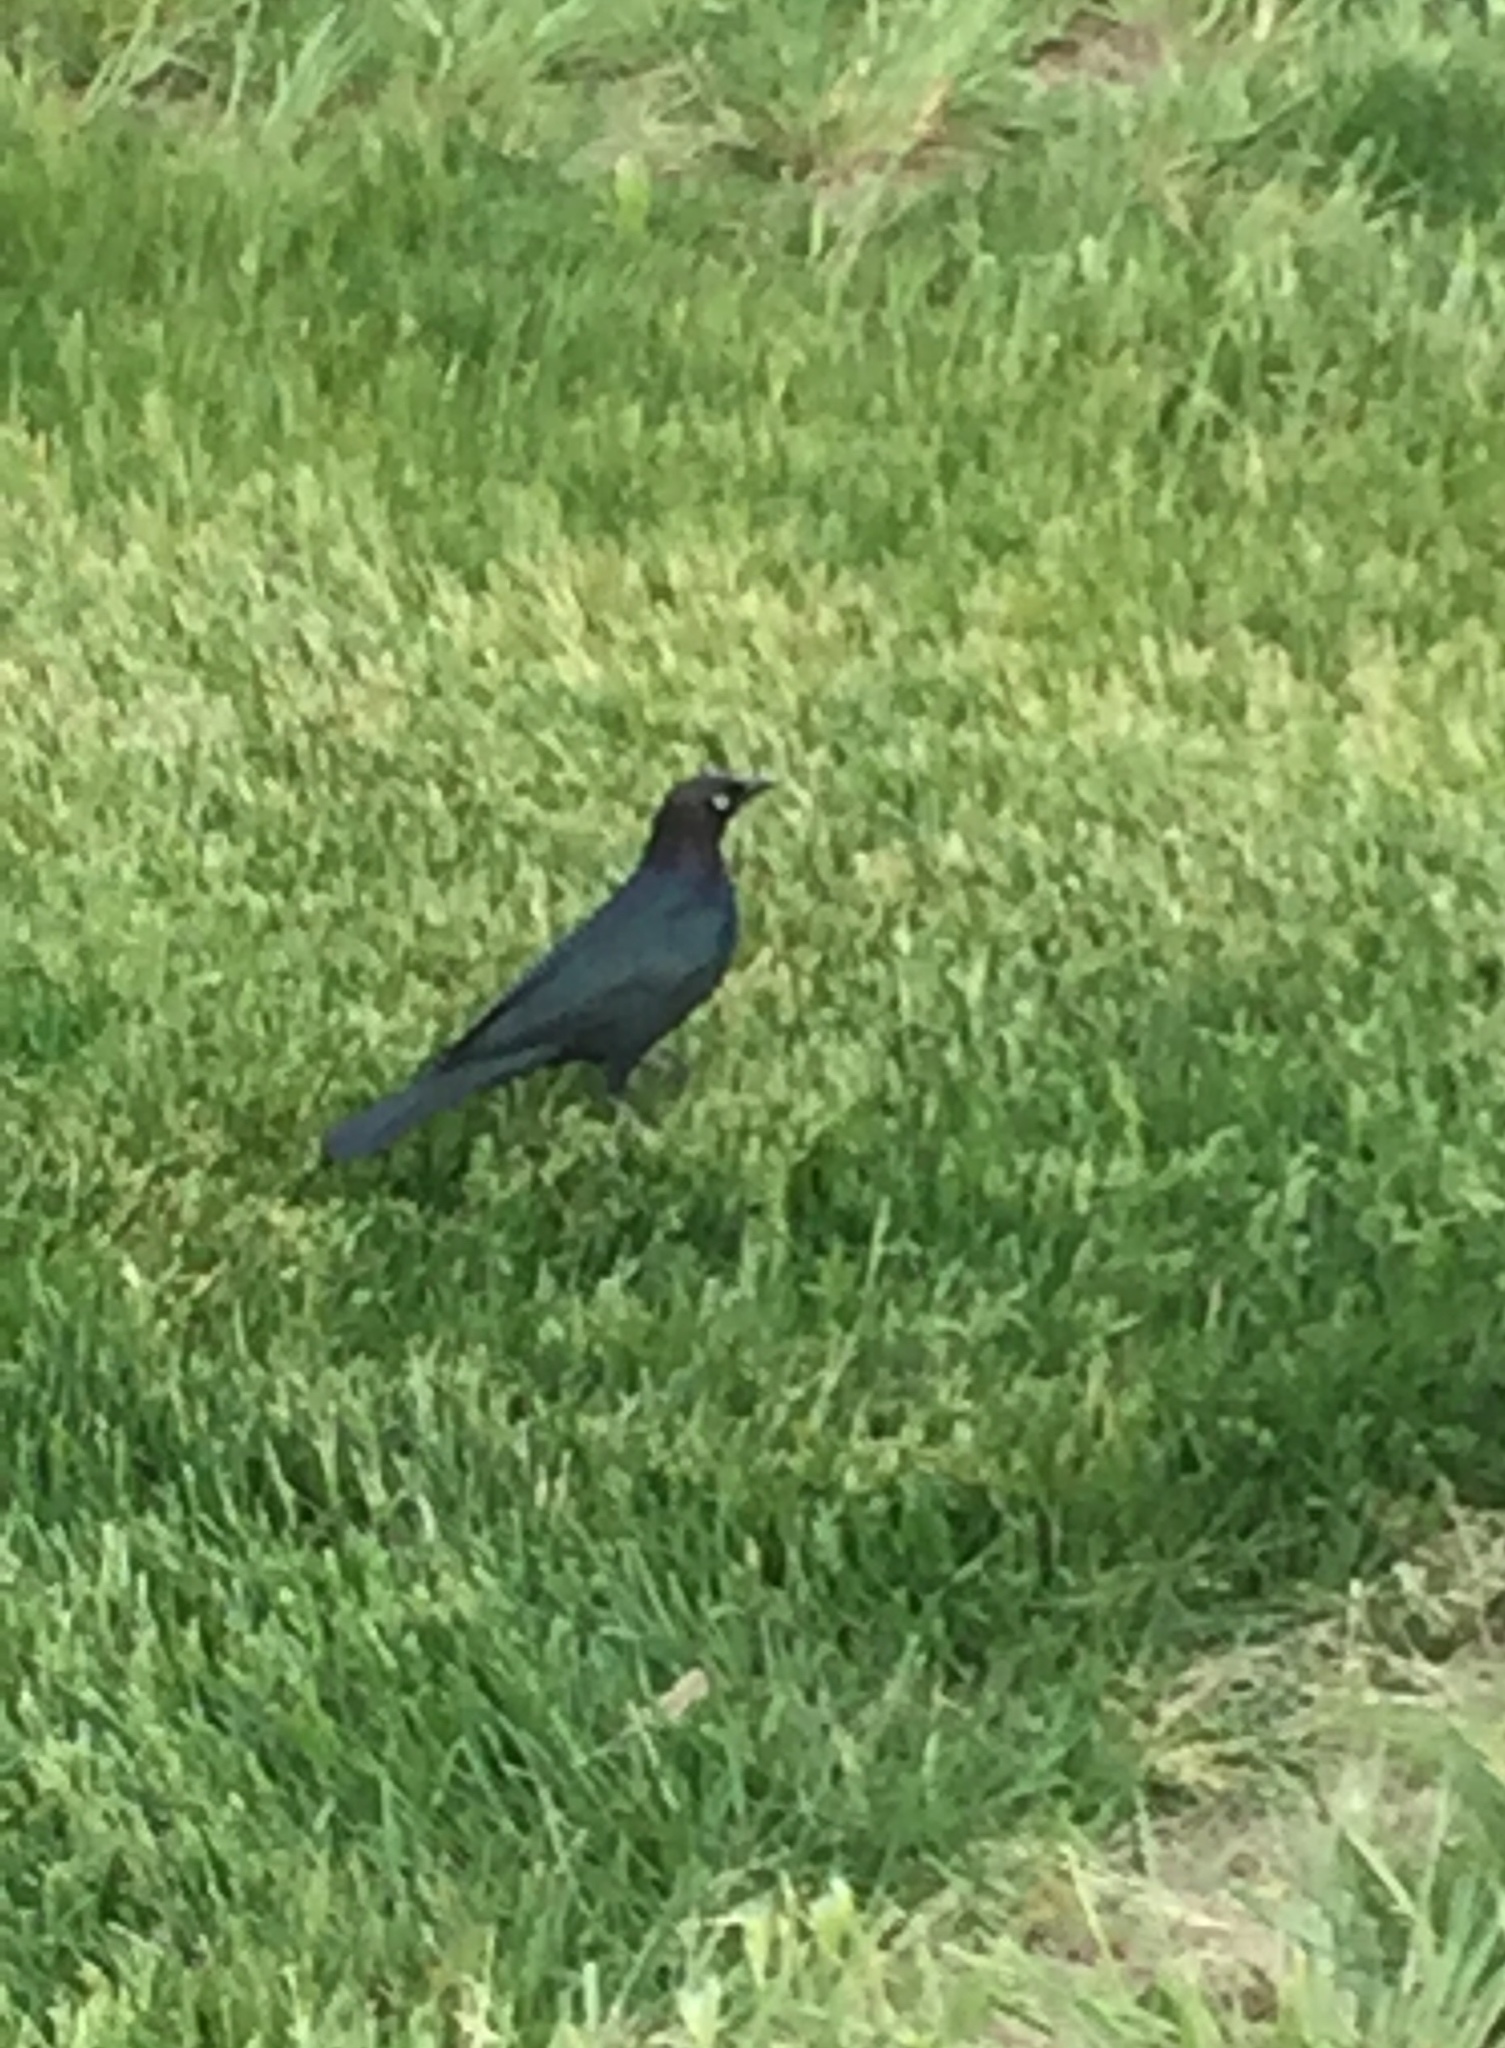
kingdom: Animalia
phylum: Chordata
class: Aves
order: Passeriformes
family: Icteridae
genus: Euphagus
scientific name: Euphagus cyanocephalus
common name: Brewer's blackbird
